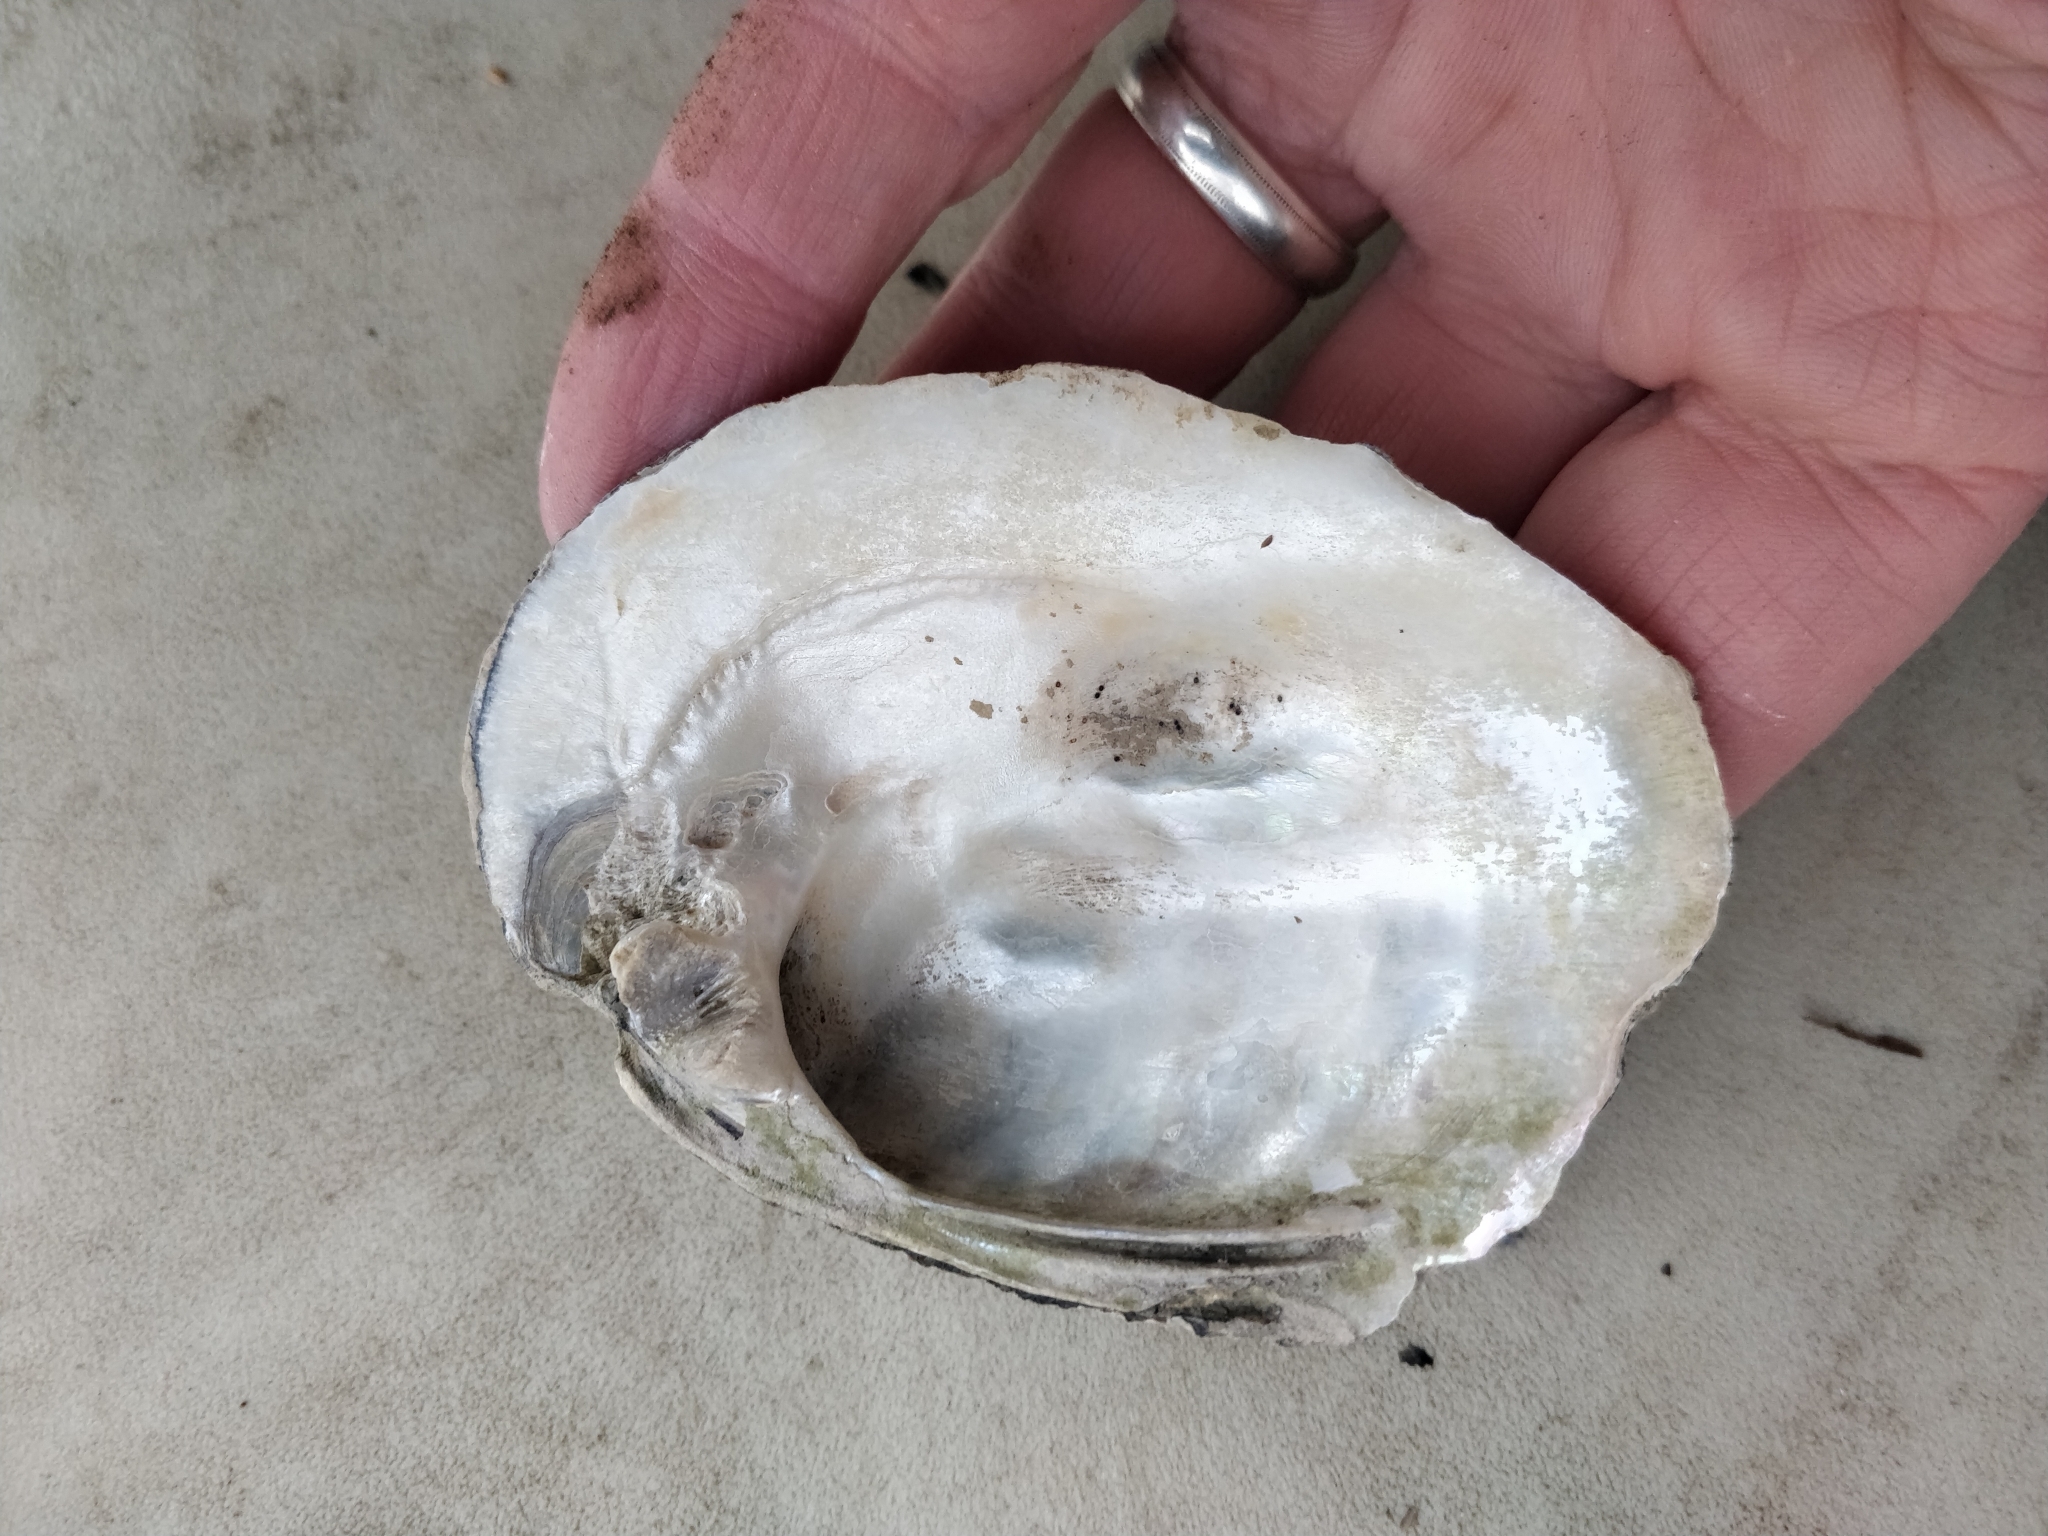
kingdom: Animalia
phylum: Mollusca
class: Bivalvia
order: Unionida
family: Unionidae
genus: Amblema
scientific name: Amblema plicata
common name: Threeridge
